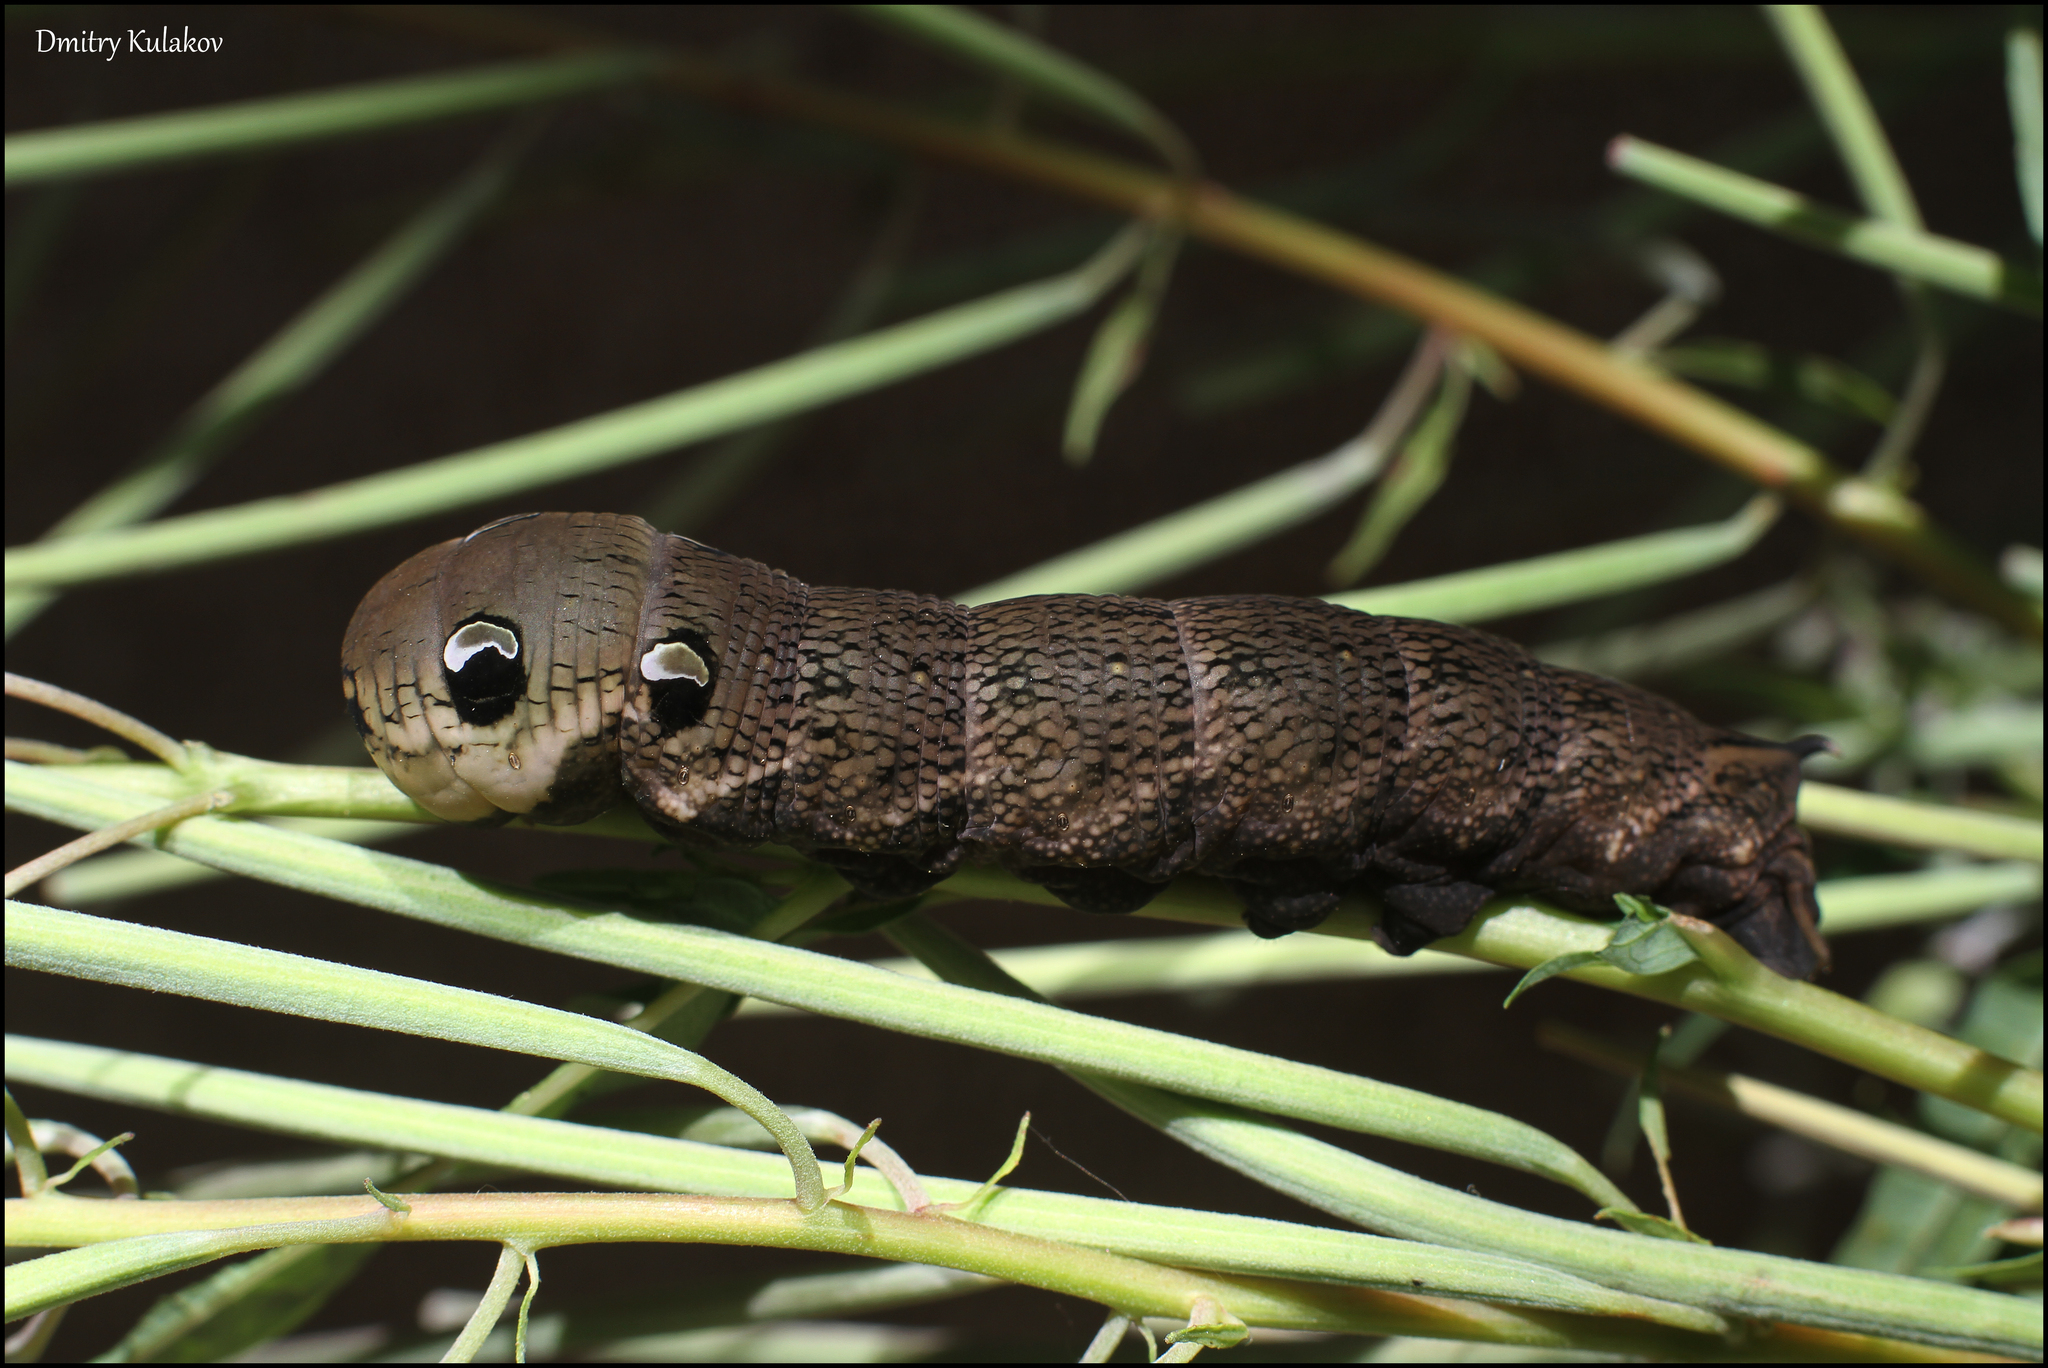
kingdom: Animalia
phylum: Arthropoda
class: Insecta
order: Lepidoptera
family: Sphingidae
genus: Deilephila
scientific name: Deilephila elpenor
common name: Elephant hawk-moth
